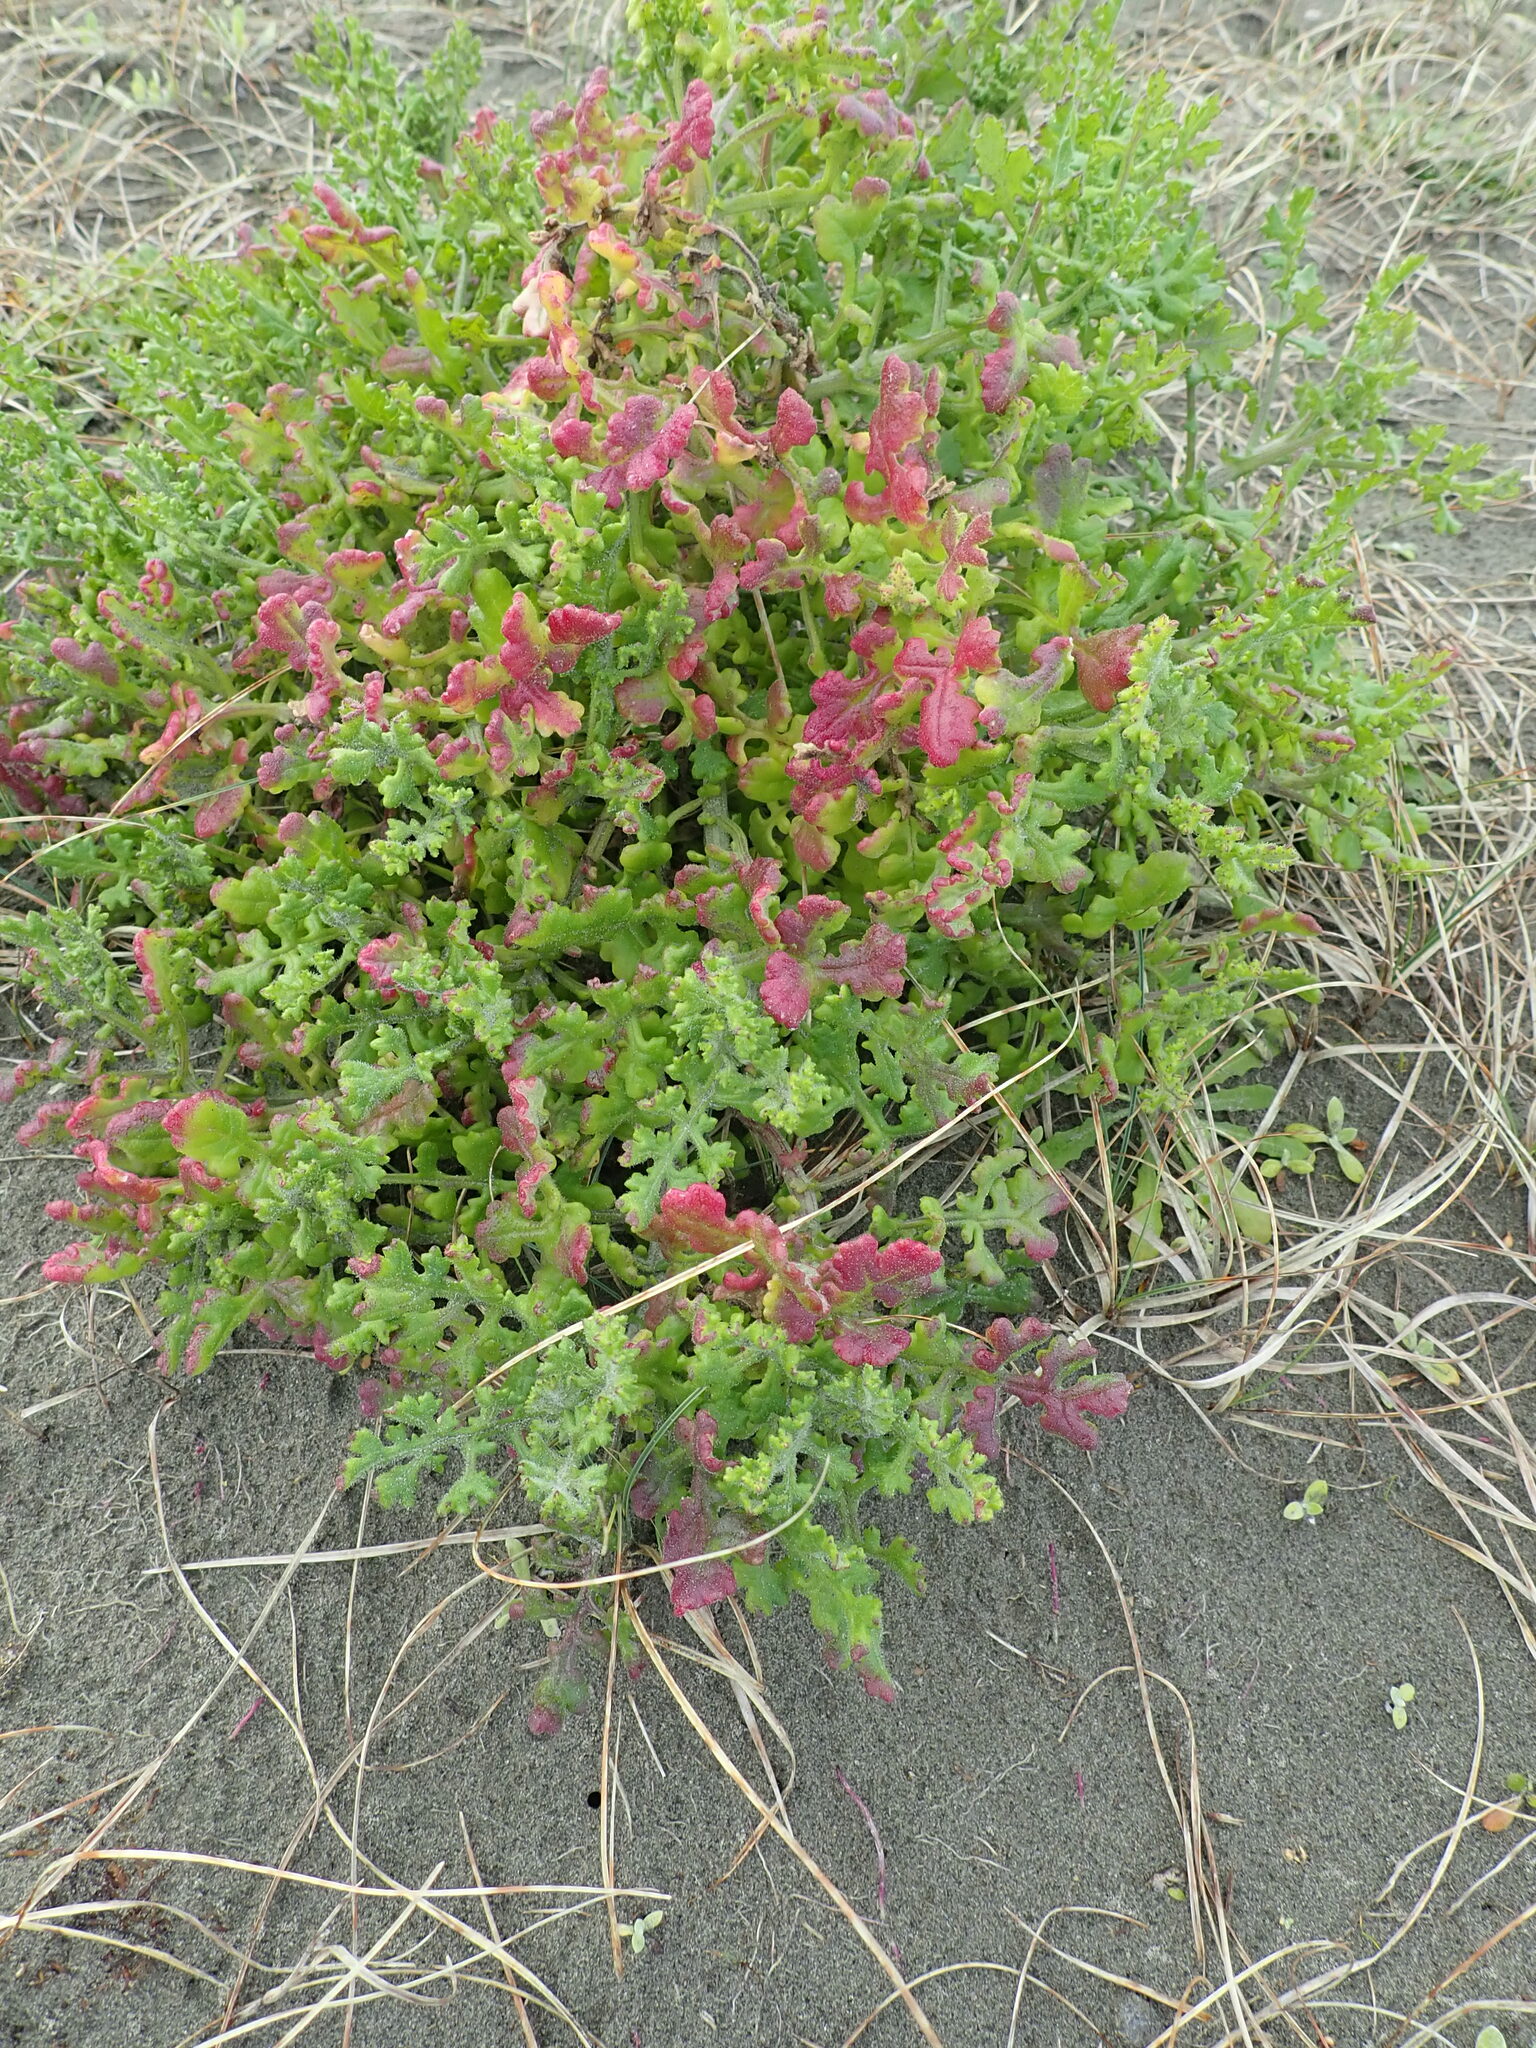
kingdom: Plantae
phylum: Tracheophyta
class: Magnoliopsida
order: Asterales
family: Asteraceae
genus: Senecio
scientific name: Senecio elegans
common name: Purple groundsel
